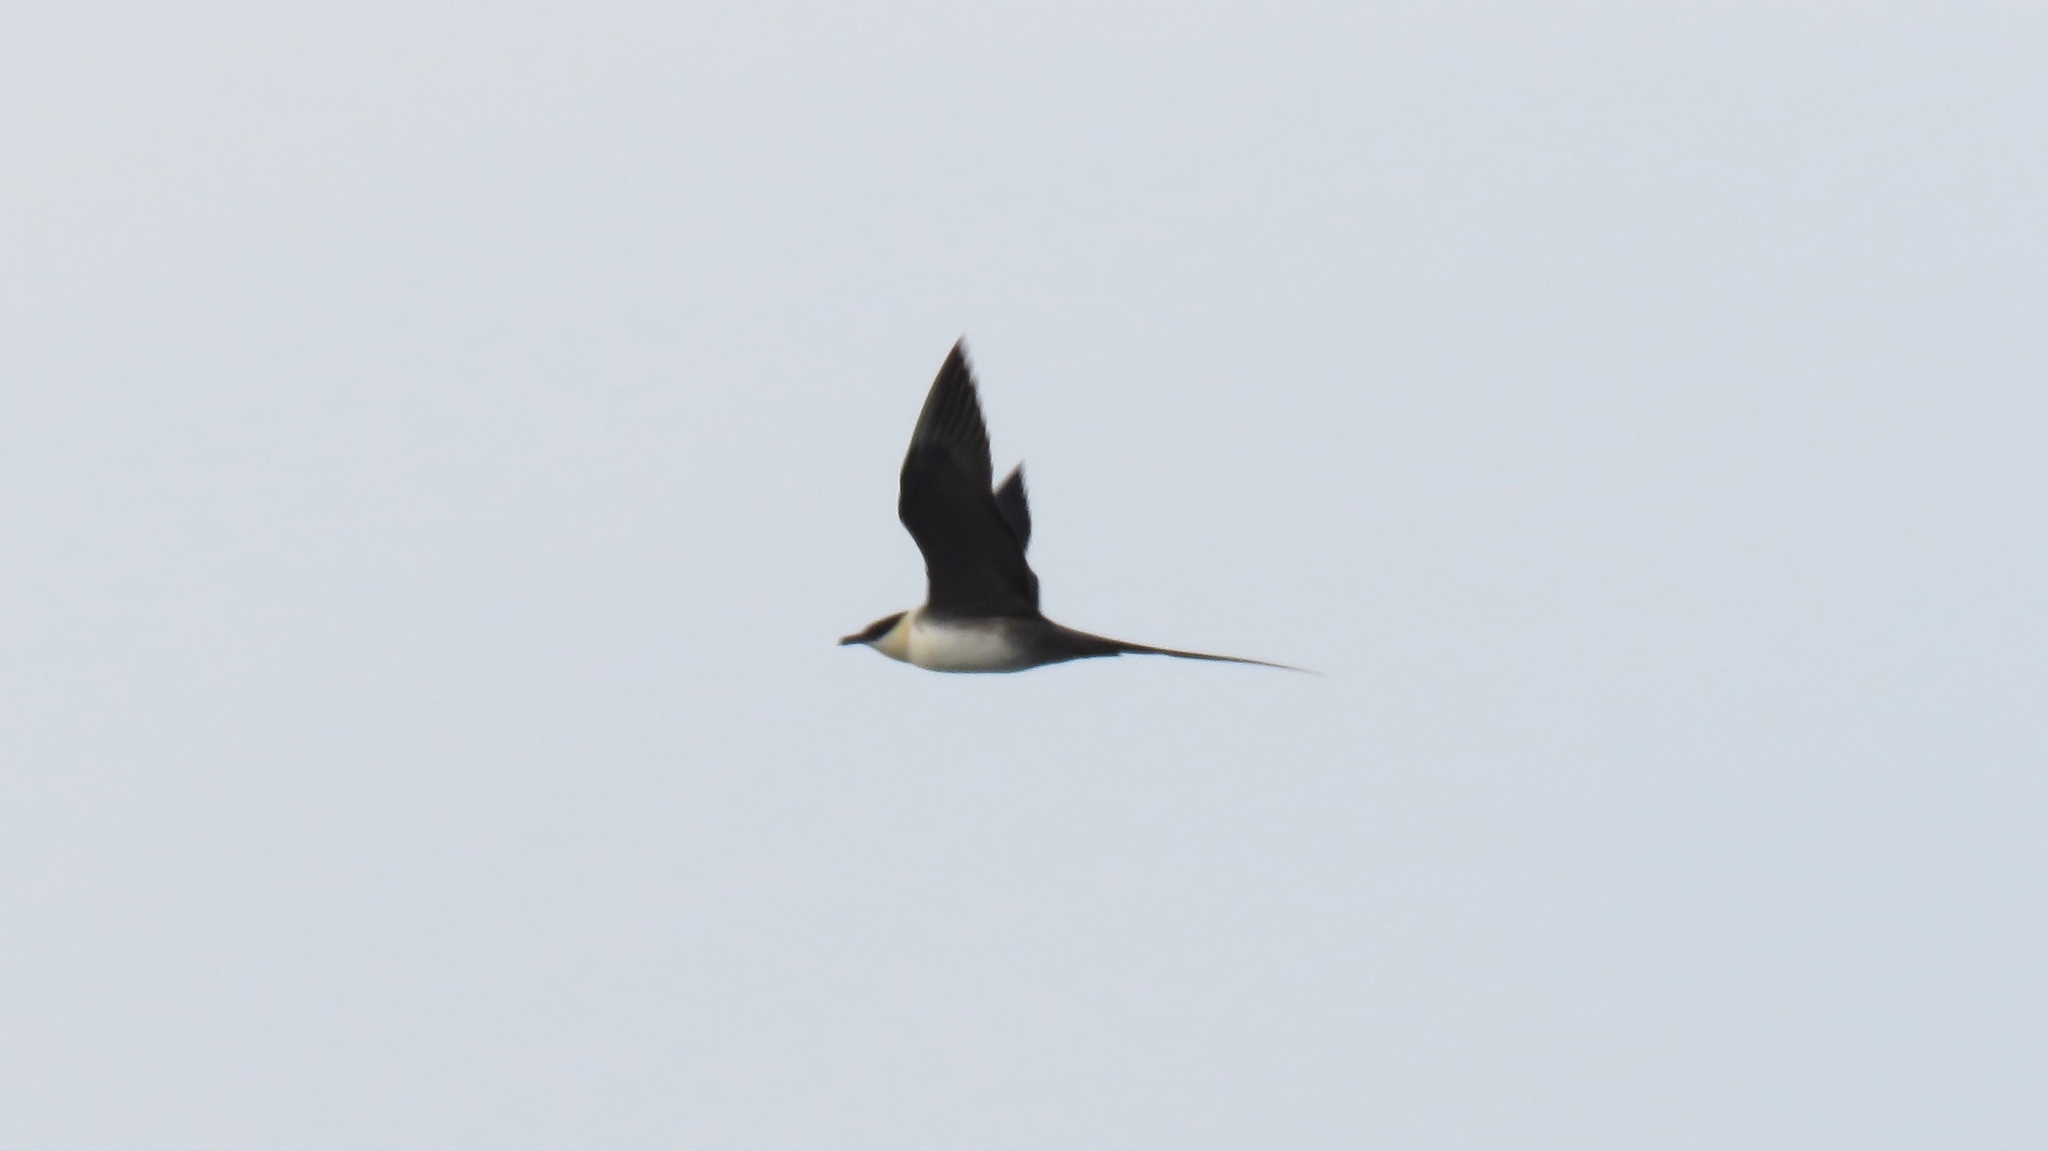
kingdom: Animalia
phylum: Chordata
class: Aves
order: Charadriiformes
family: Stercorariidae
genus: Stercorarius
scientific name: Stercorarius longicaudus
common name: Long-tailed jaeger
